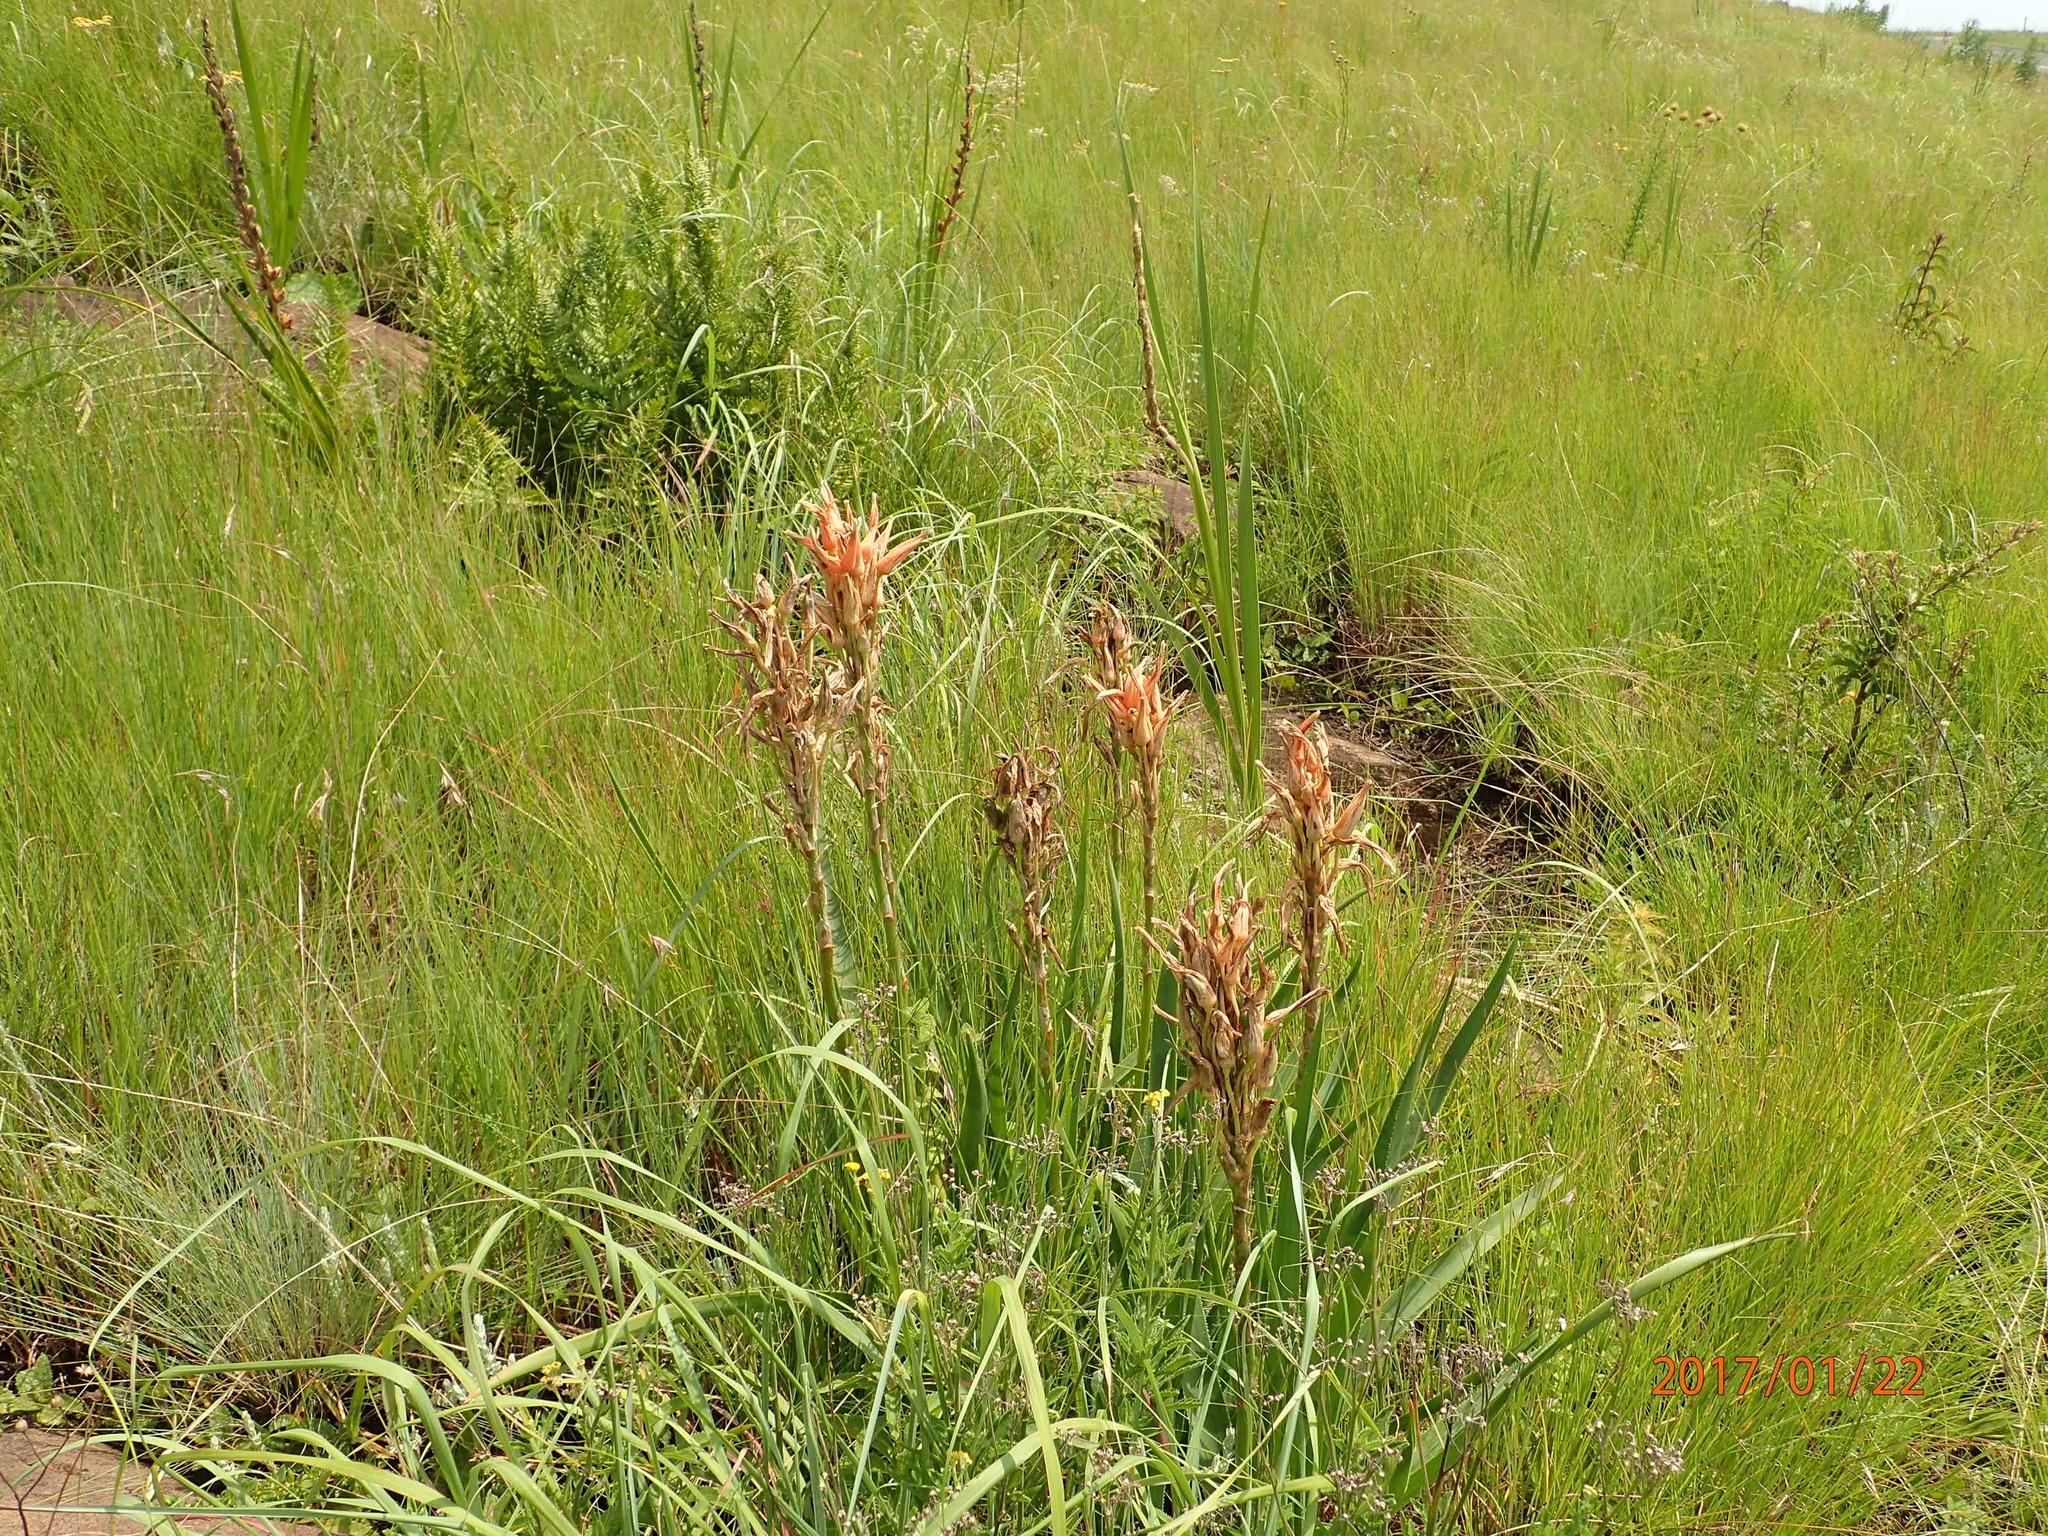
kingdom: Plantae
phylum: Tracheophyta
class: Liliopsida
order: Asparagales
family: Asphodelaceae
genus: Aloe
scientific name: Aloe cooperi
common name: Cooper's aloe
